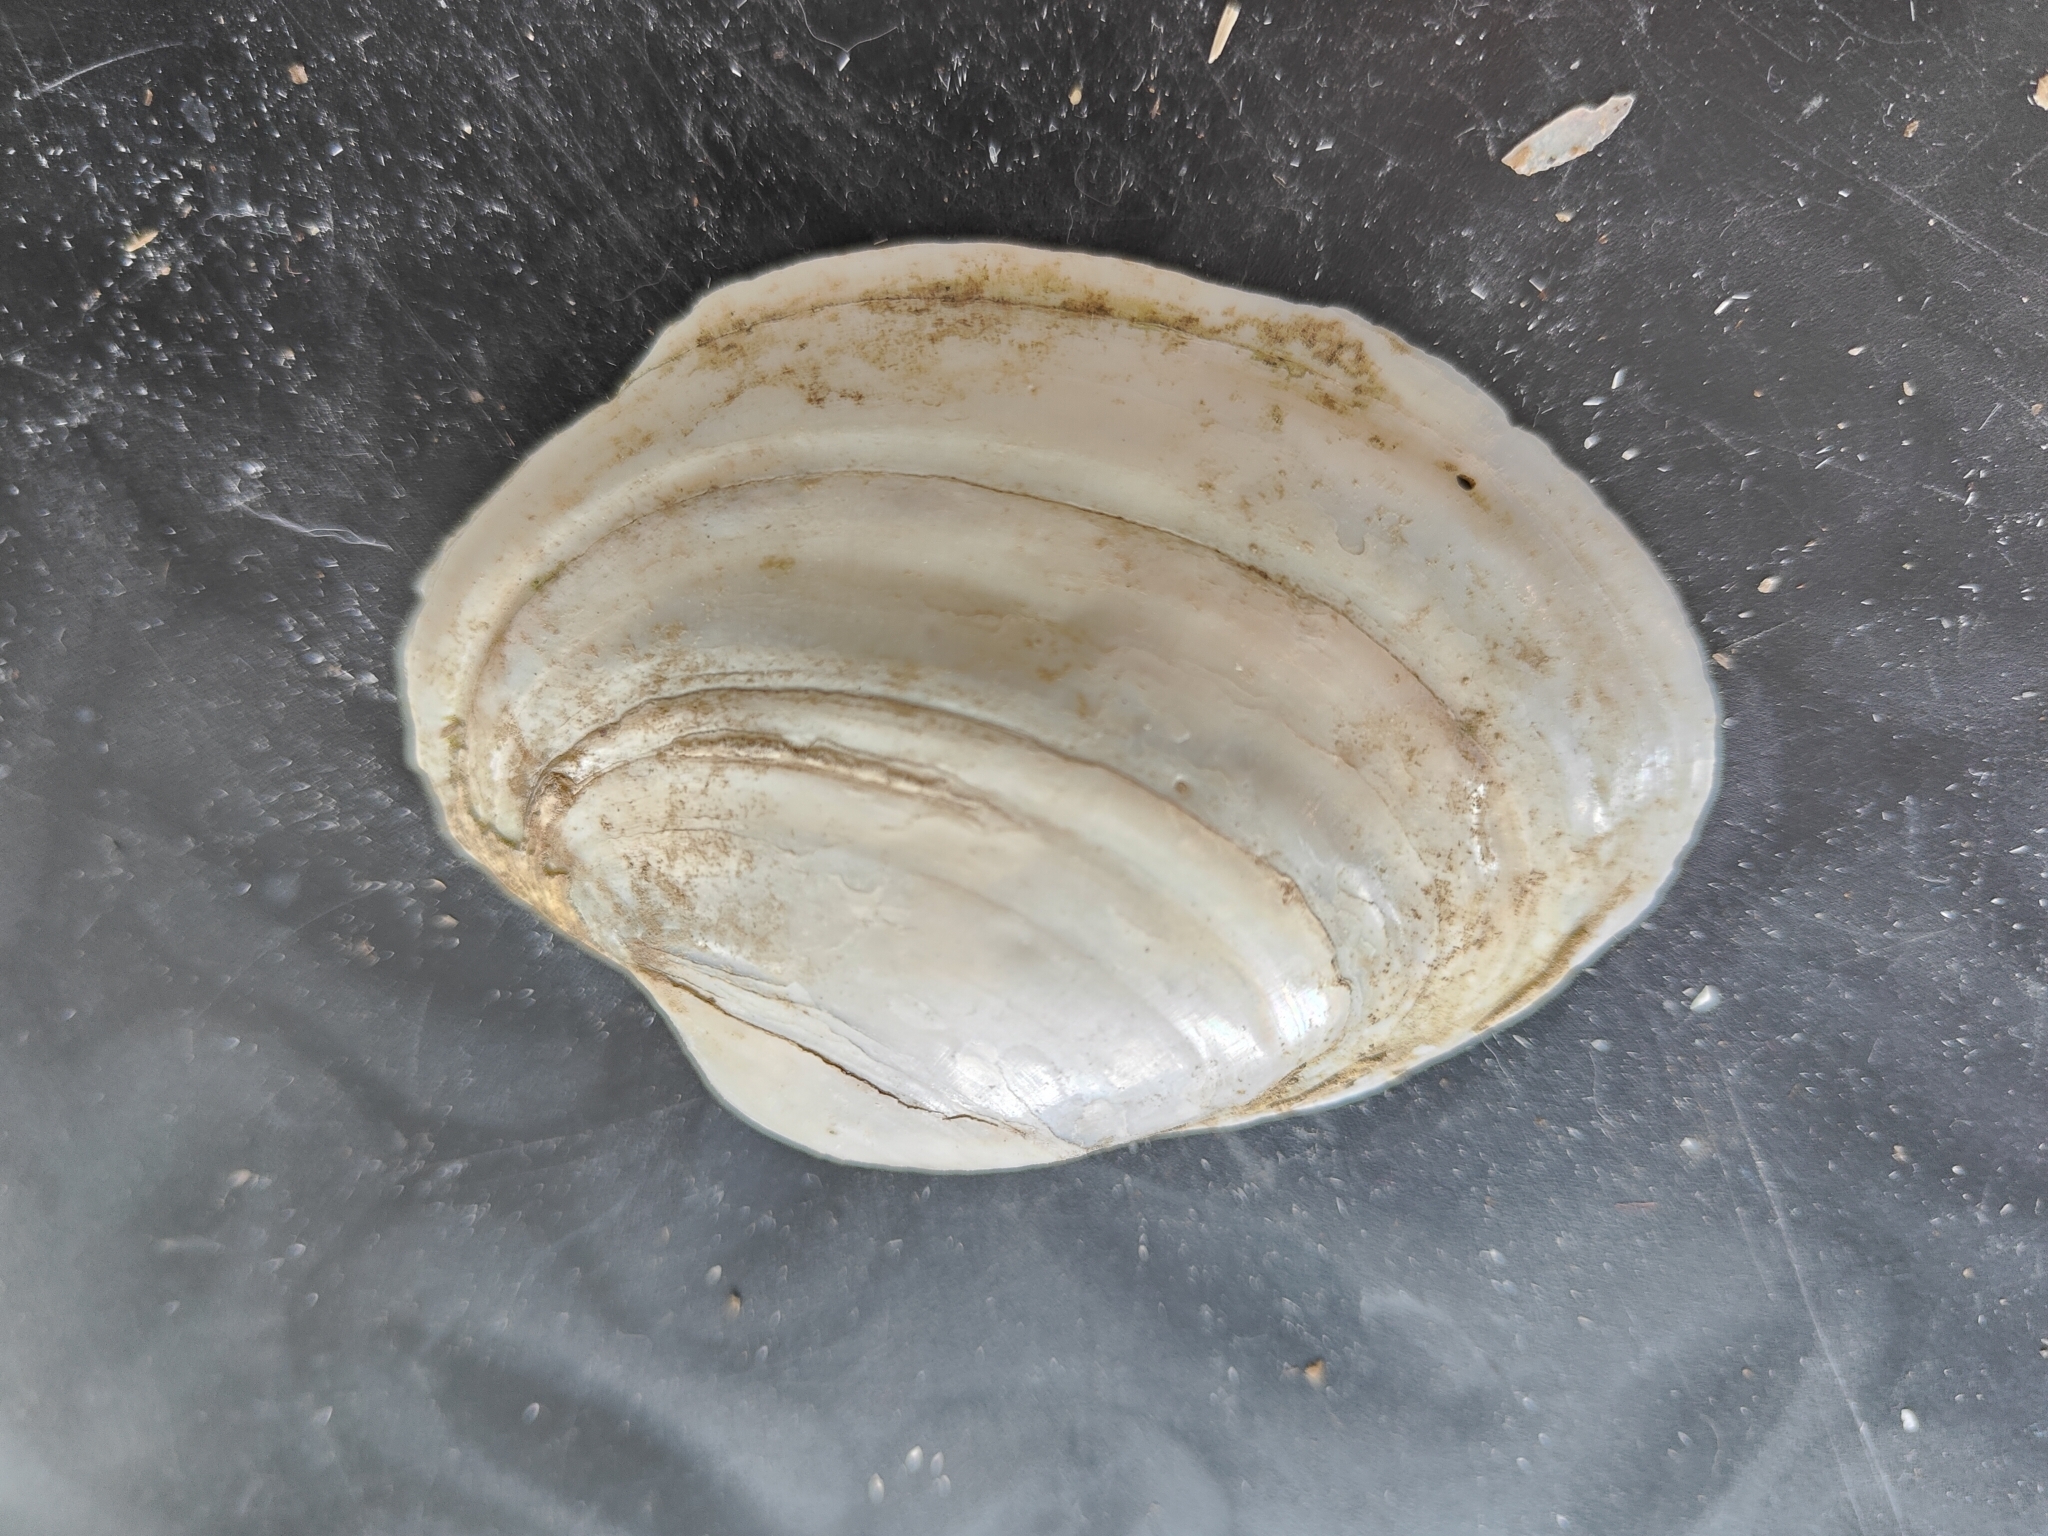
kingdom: Animalia
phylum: Mollusca
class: Bivalvia
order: Unionida
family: Unionidae
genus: Lampsilis
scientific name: Lampsilis cardium
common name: Plain pocketbook
